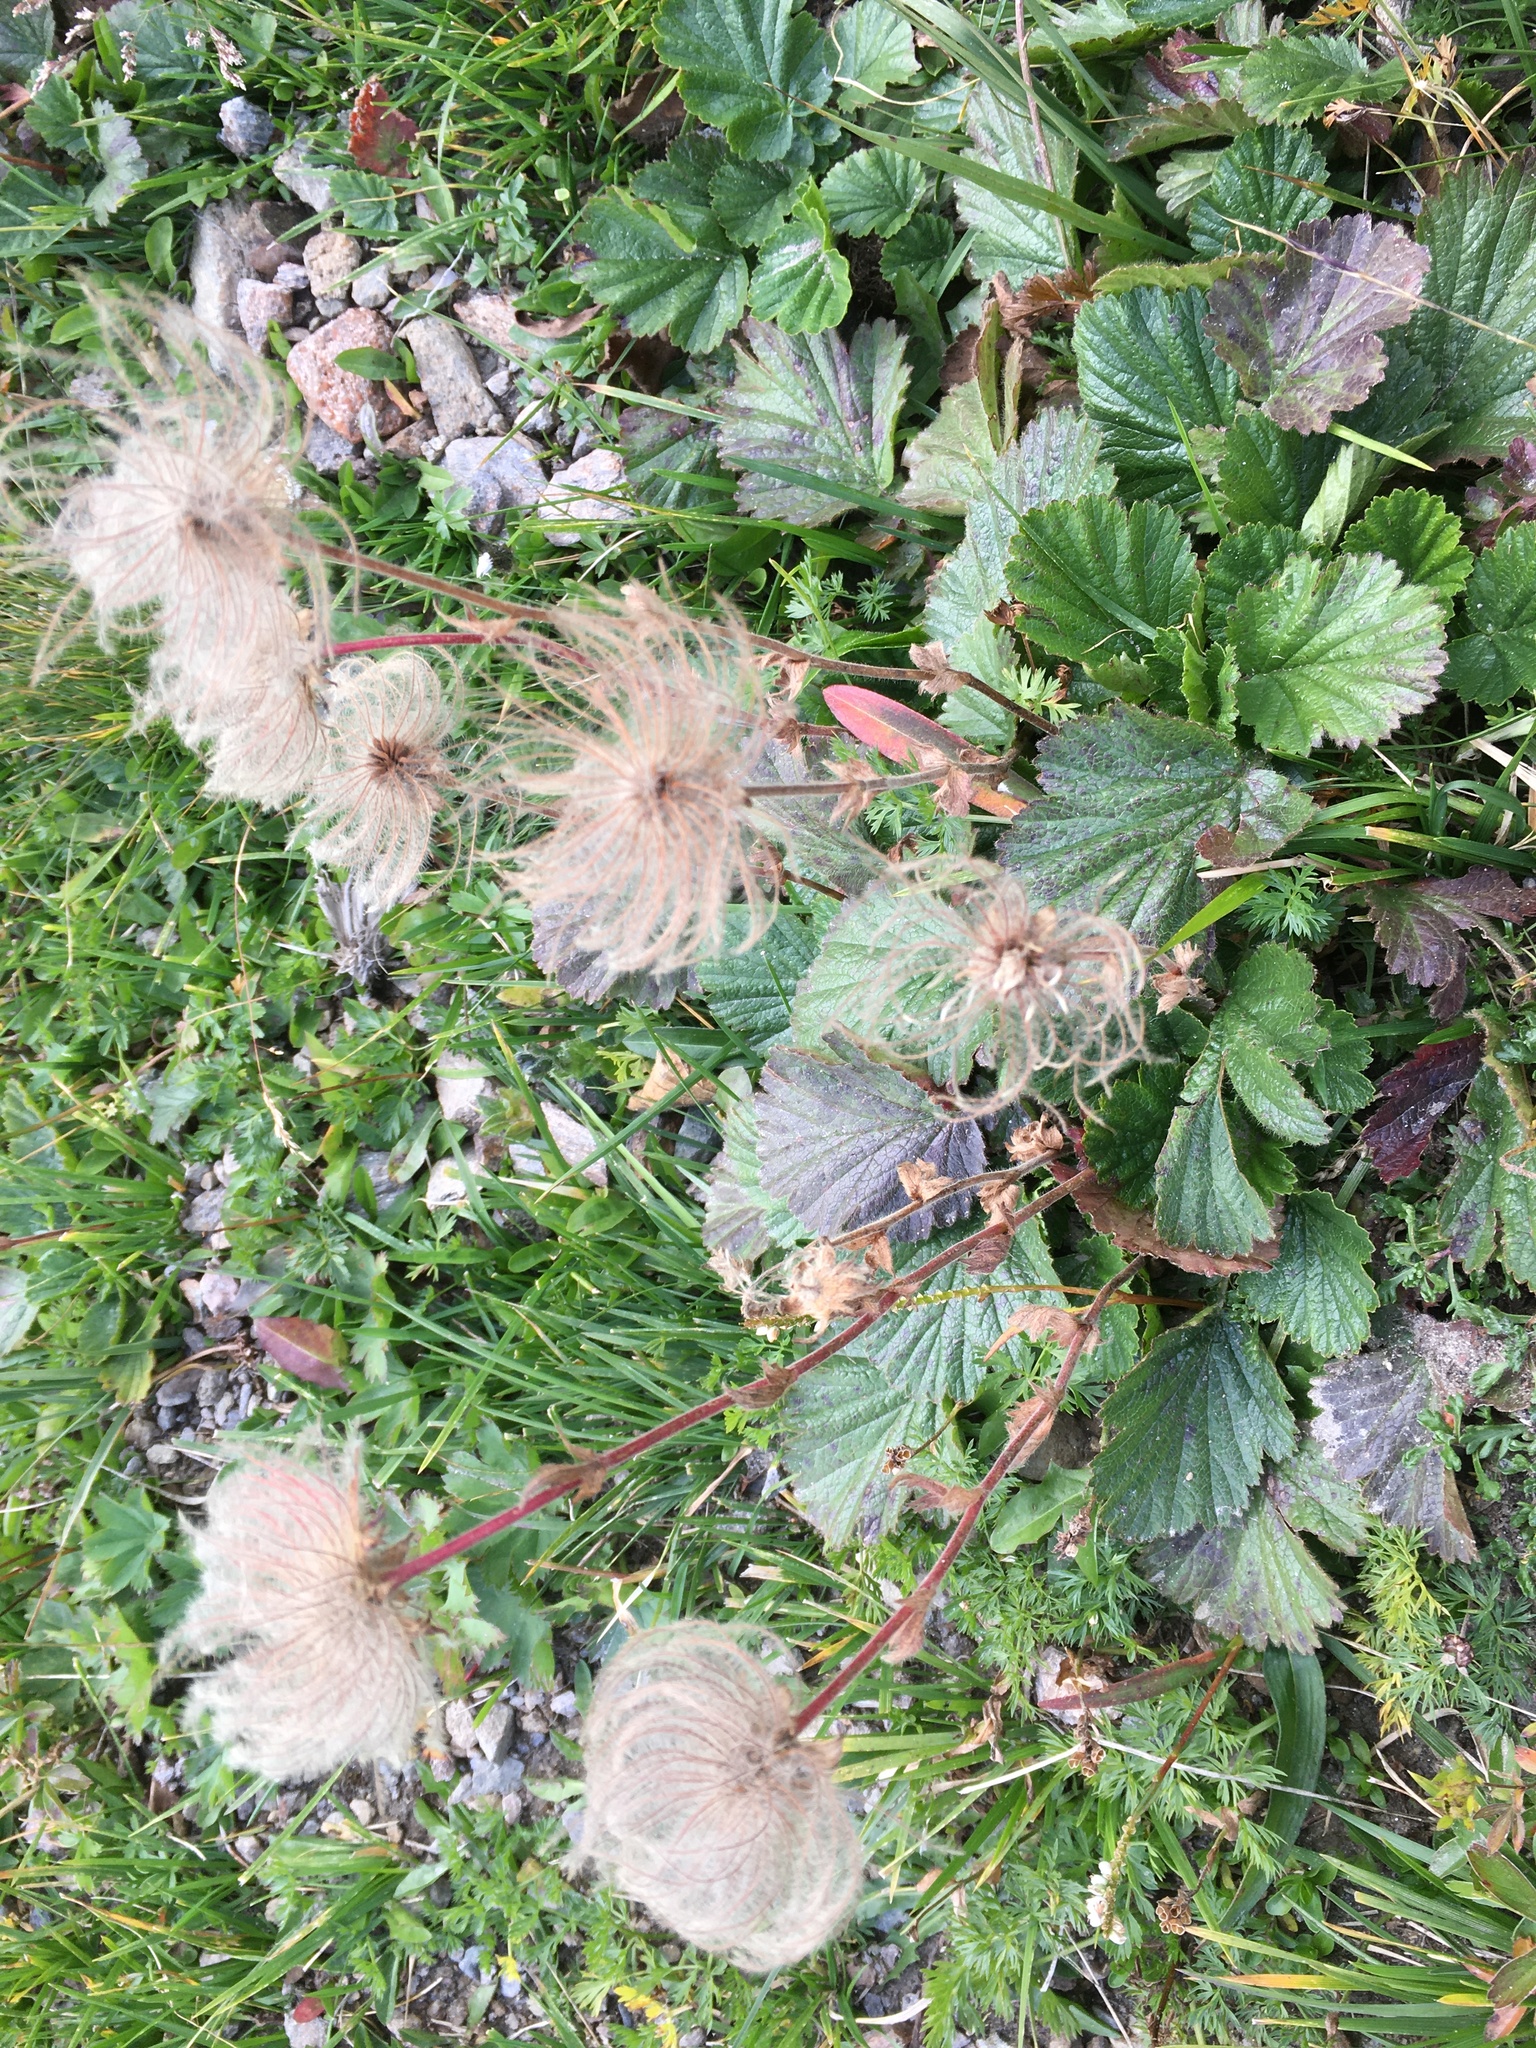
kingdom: Plantae
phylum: Tracheophyta
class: Magnoliopsida
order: Rosales
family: Rosaceae
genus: Geum
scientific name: Geum montanum
